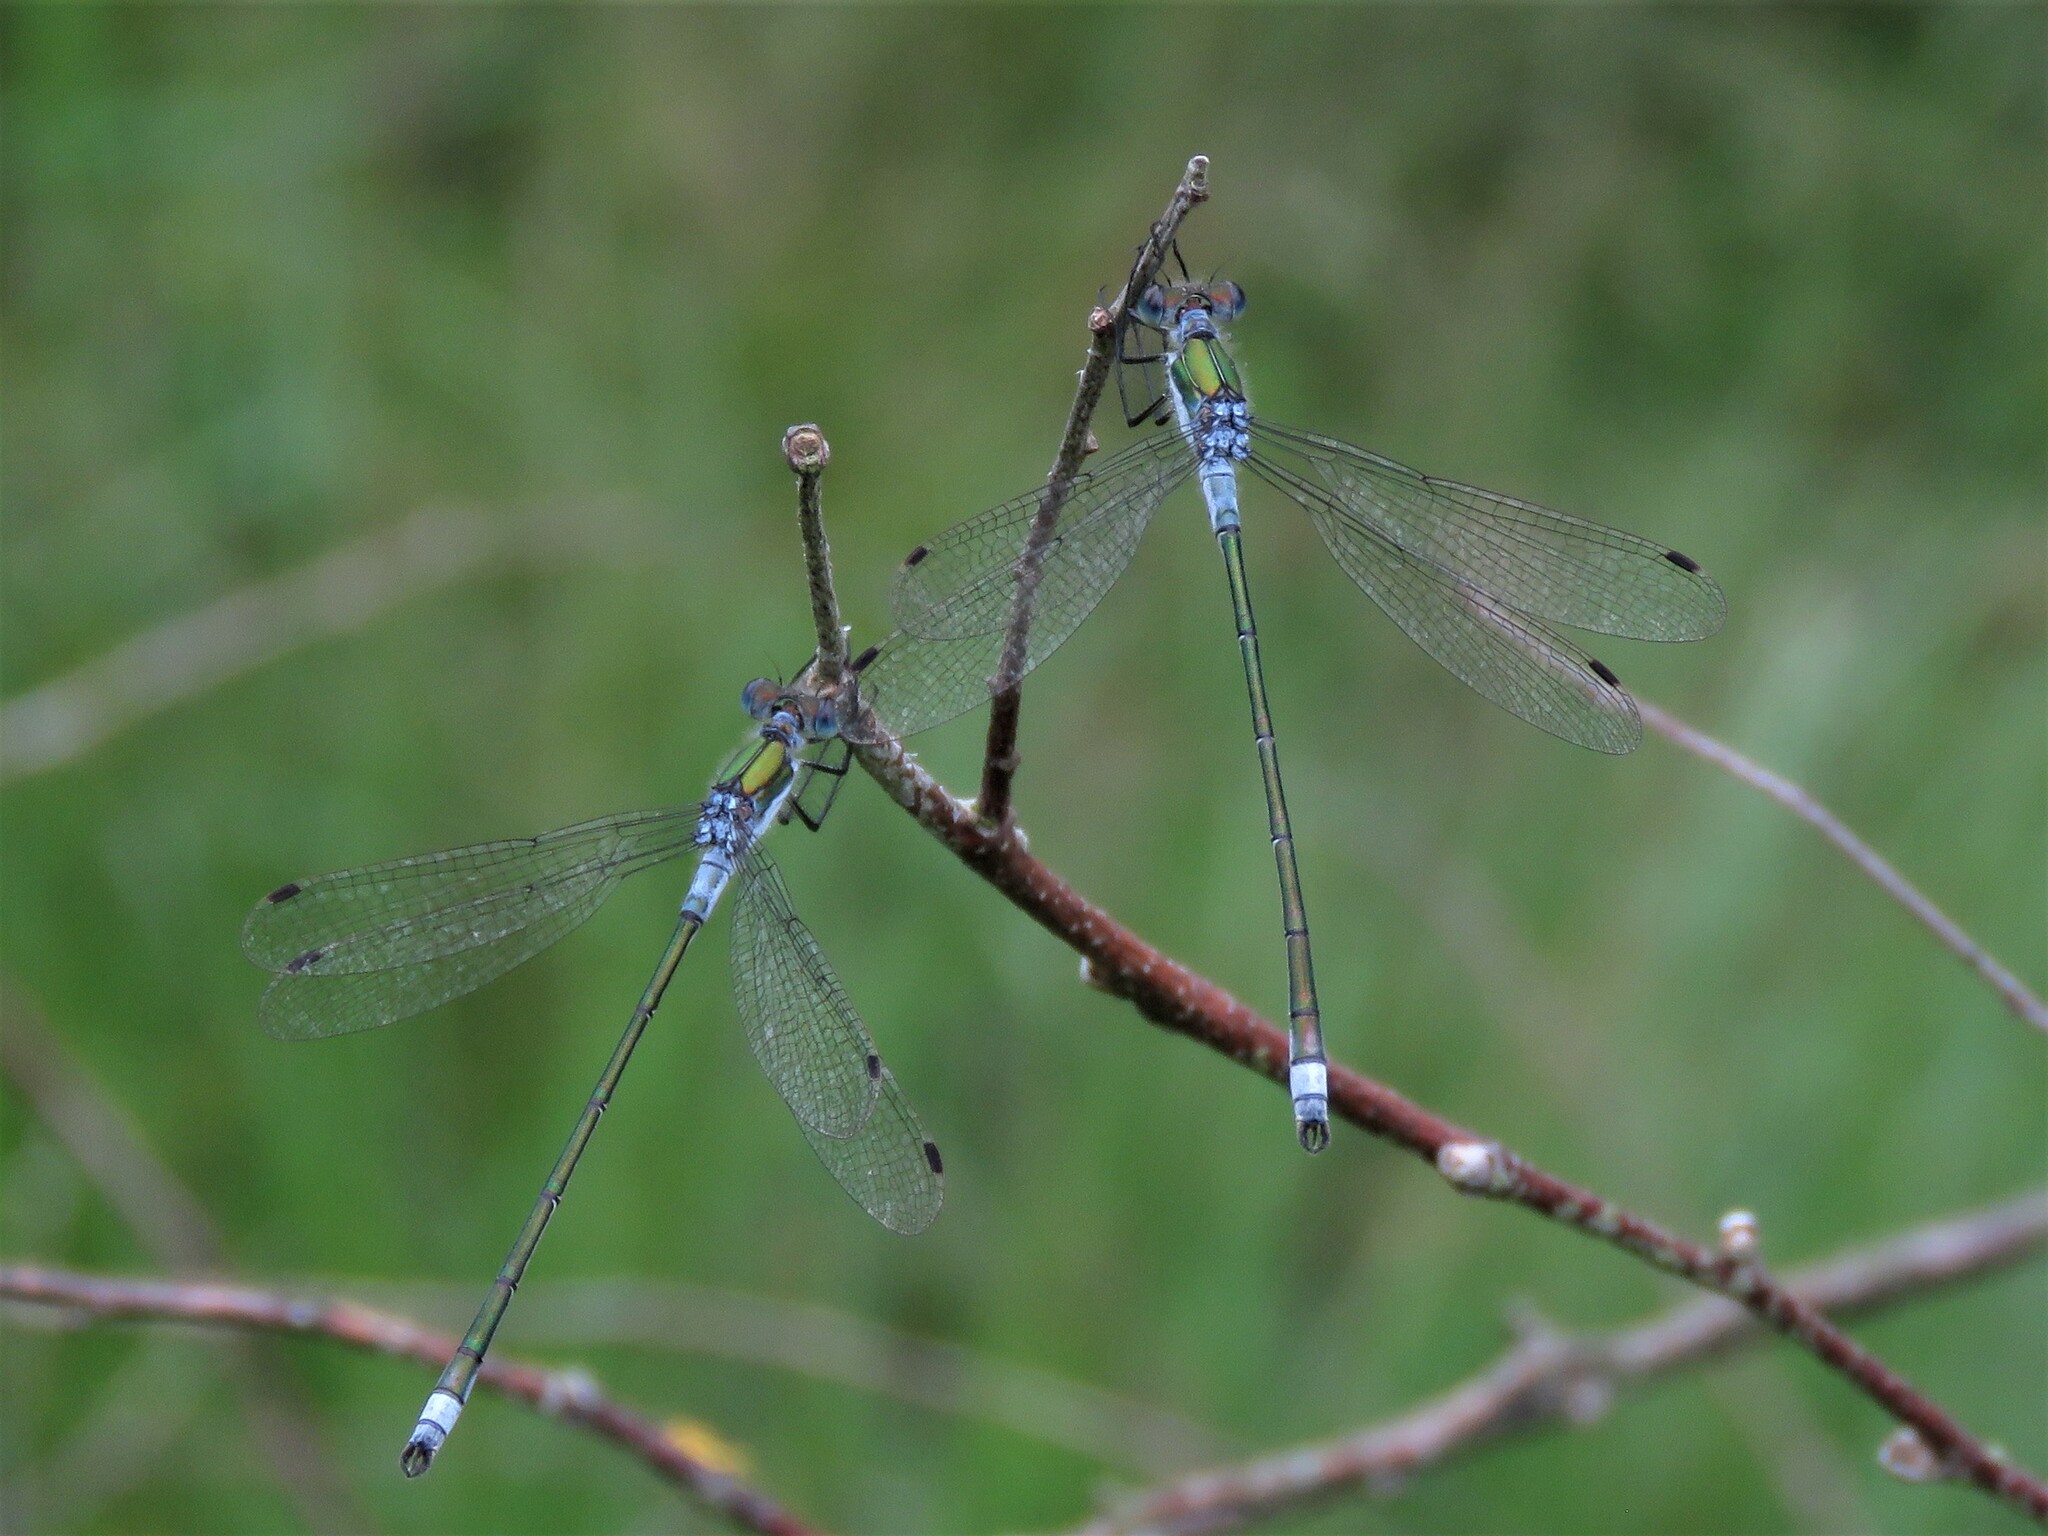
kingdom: Animalia
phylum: Arthropoda
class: Insecta
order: Odonata
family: Lestidae
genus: Lestes
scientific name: Lestes sponsa
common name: Common spreadwing
